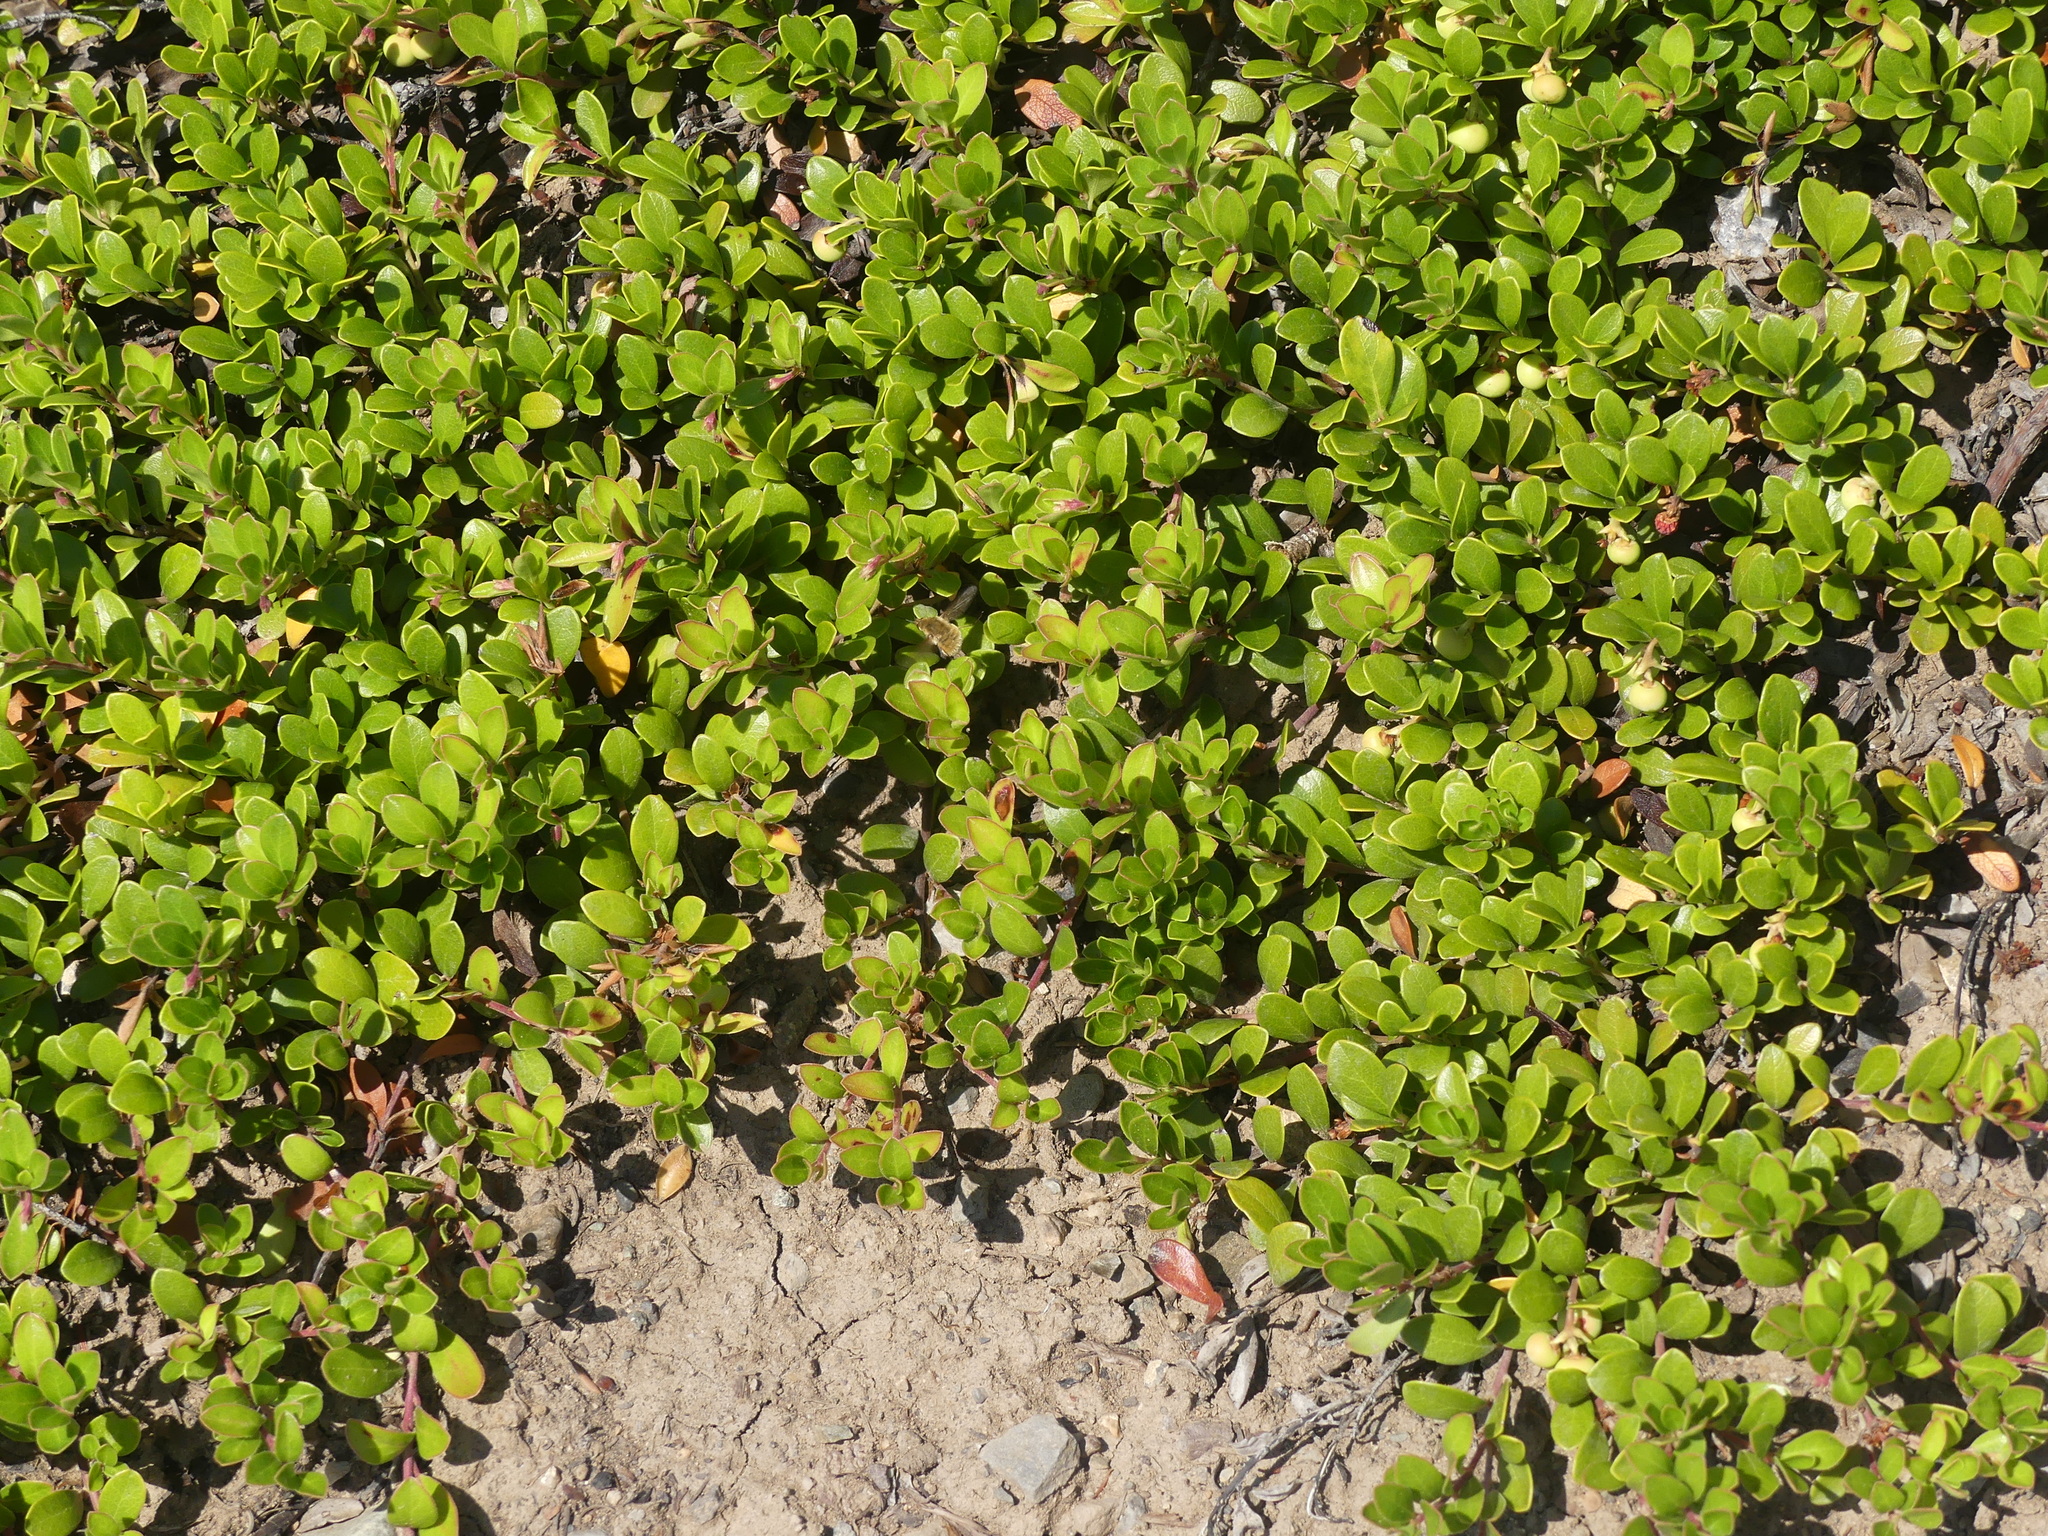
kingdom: Plantae
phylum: Tracheophyta
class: Magnoliopsida
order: Ericales
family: Ericaceae
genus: Arctostaphylos
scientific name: Arctostaphylos uva-ursi
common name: Bearberry
